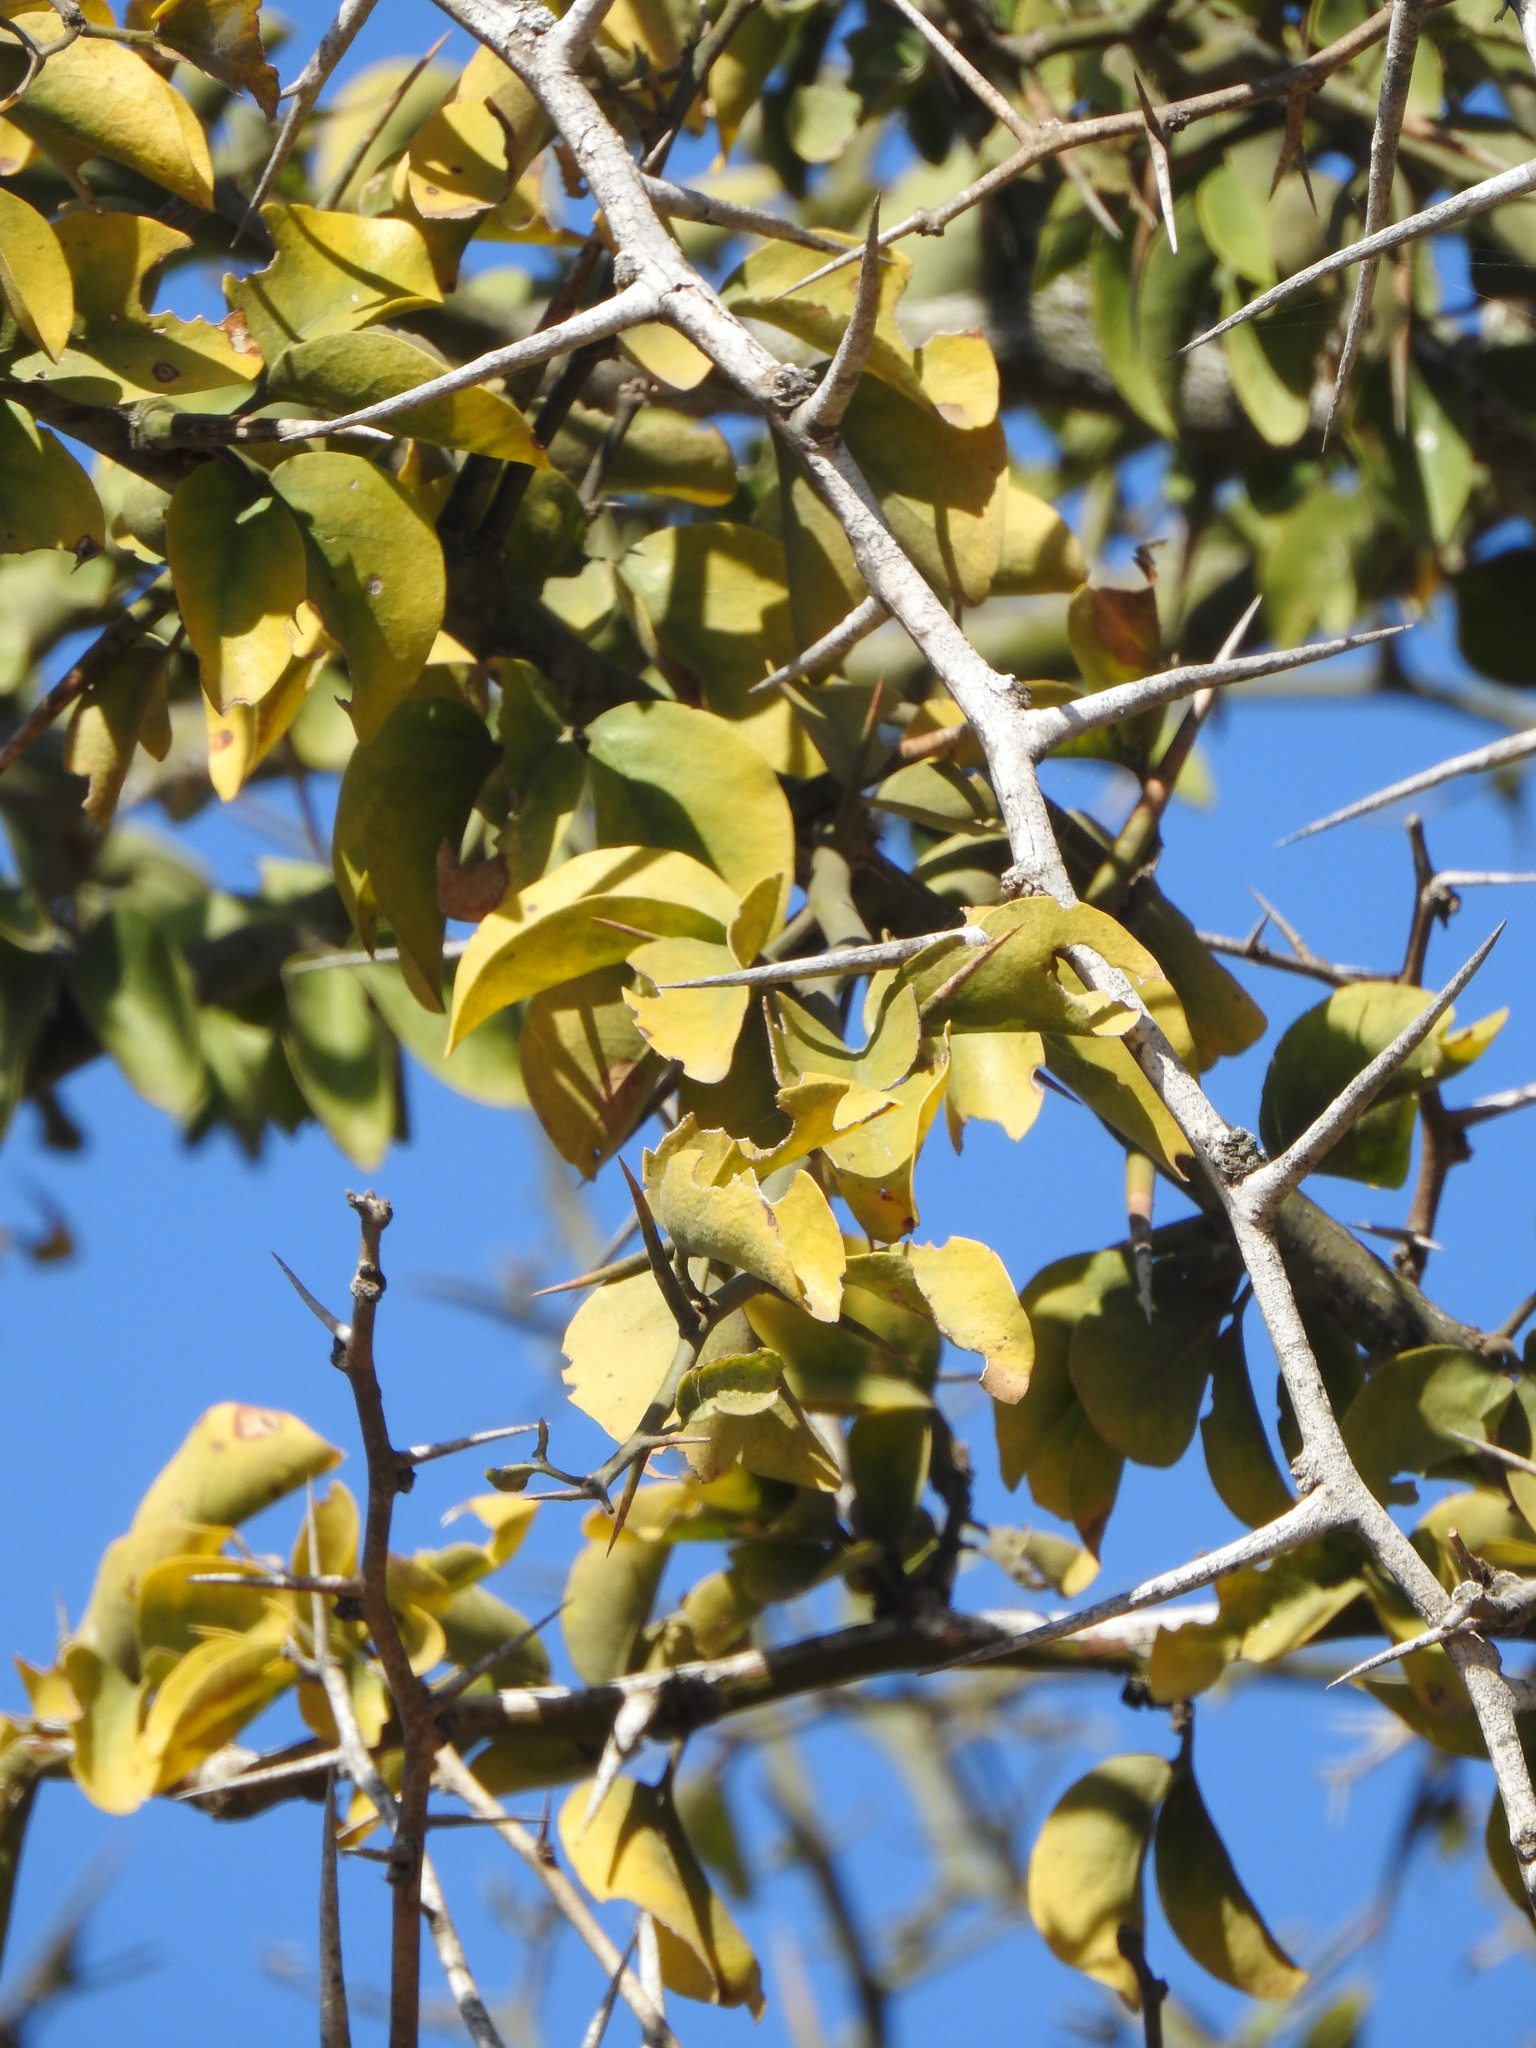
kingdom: Plantae
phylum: Tracheophyta
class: Magnoliopsida
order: Zygophyllales
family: Zygophyllaceae
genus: Balanites
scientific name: Balanites maughamii
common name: Torchwood
